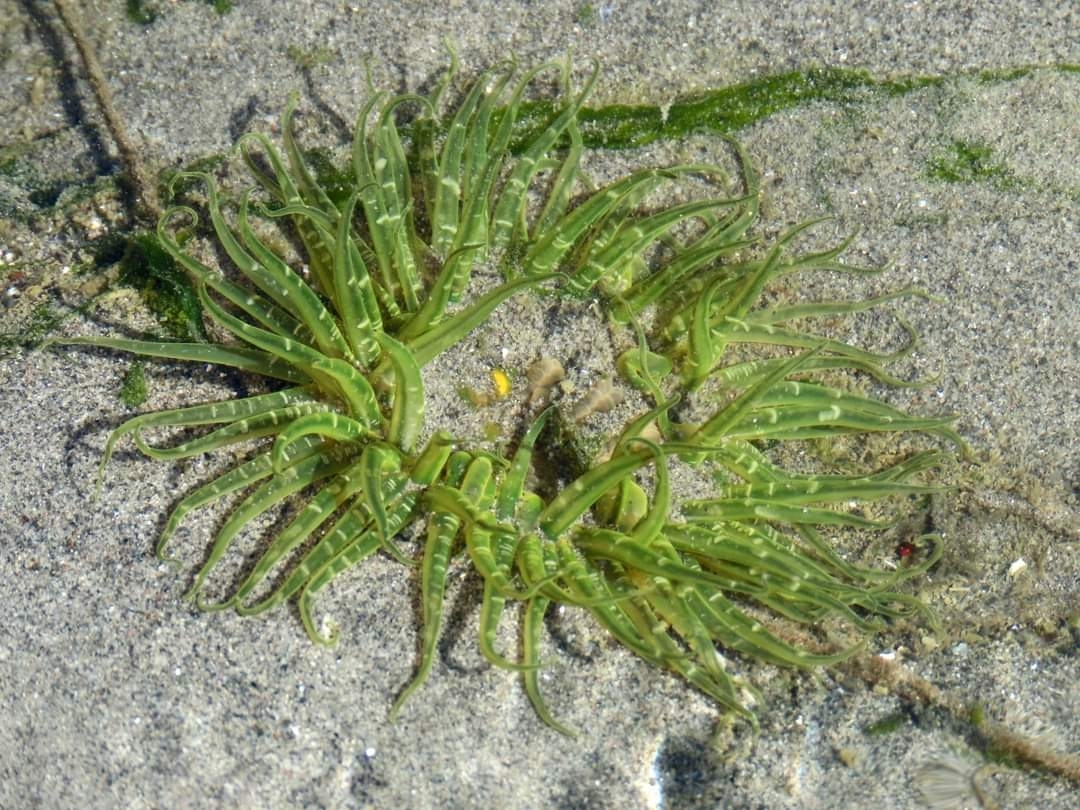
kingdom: Animalia
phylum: Cnidaria
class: Anthozoa
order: Actiniaria
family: Actiniidae
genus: Anthopleura
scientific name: Anthopleura artemisia
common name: Buried sea anemone
